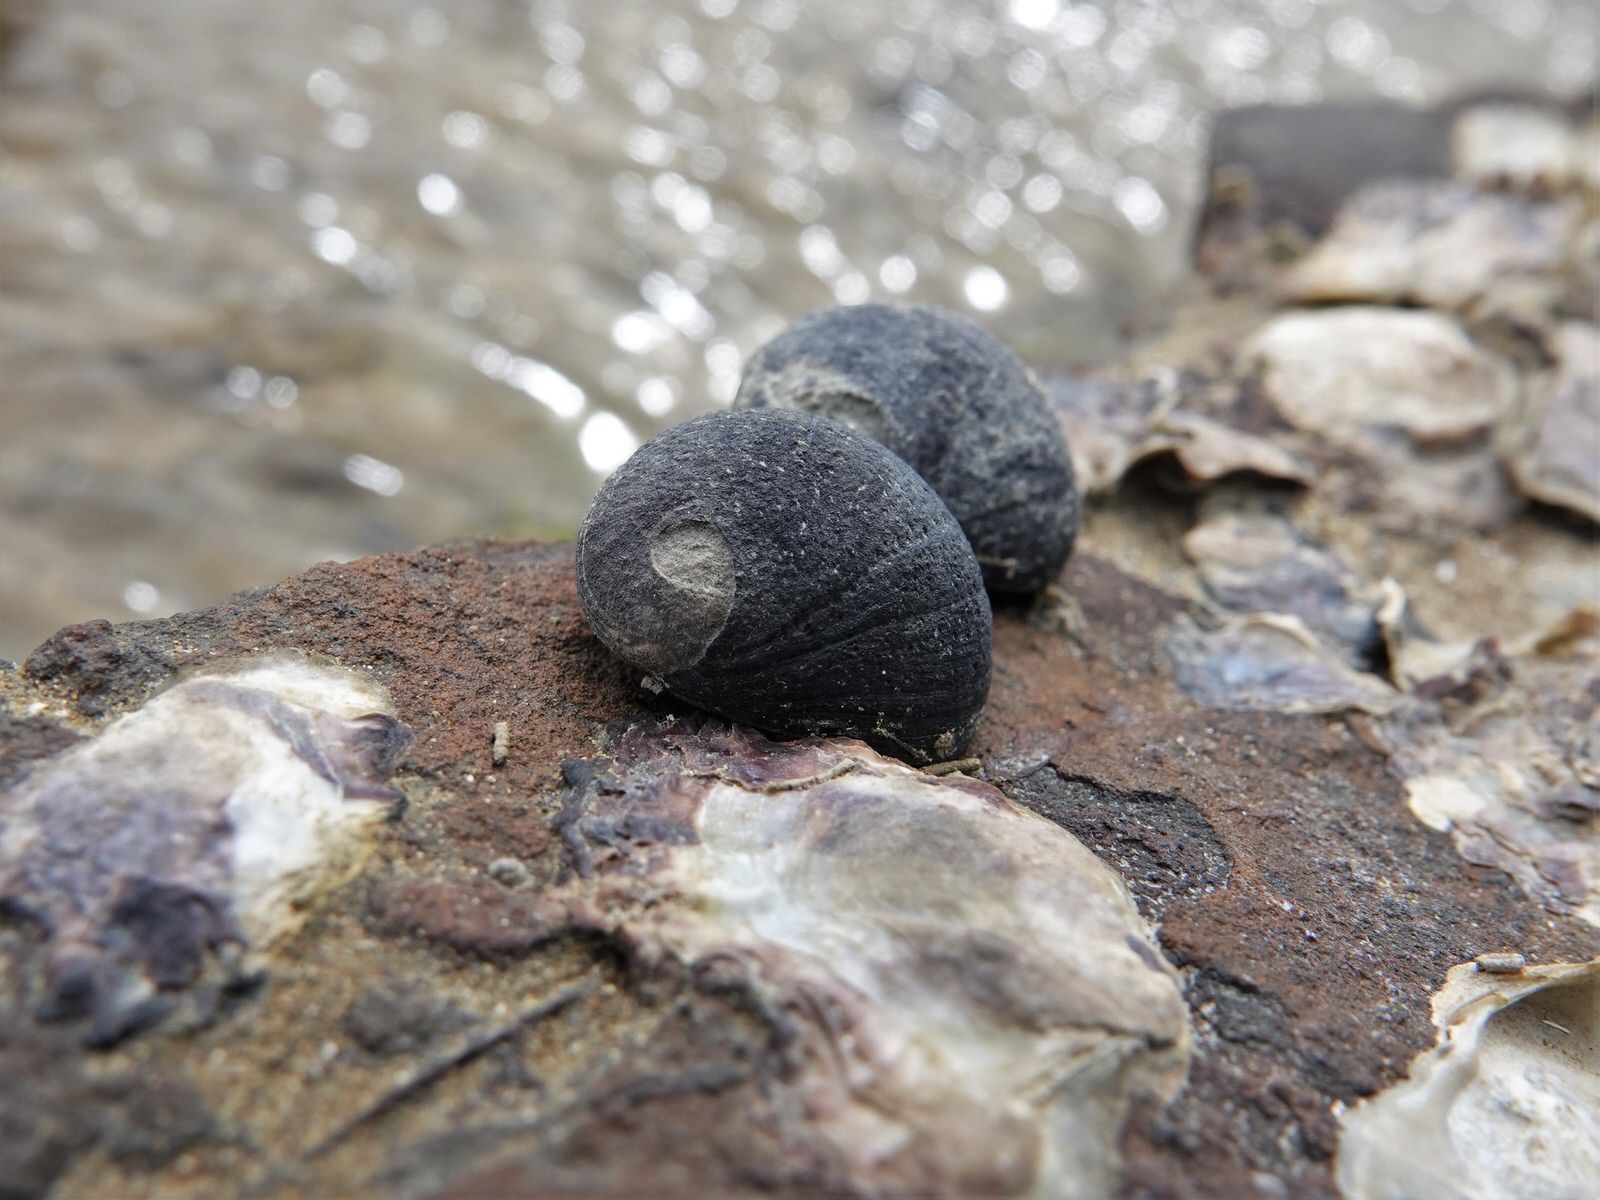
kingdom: Animalia
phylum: Mollusca
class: Gastropoda
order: Cycloneritida
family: Neritidae
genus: Nerita
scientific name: Nerita melanotragus
